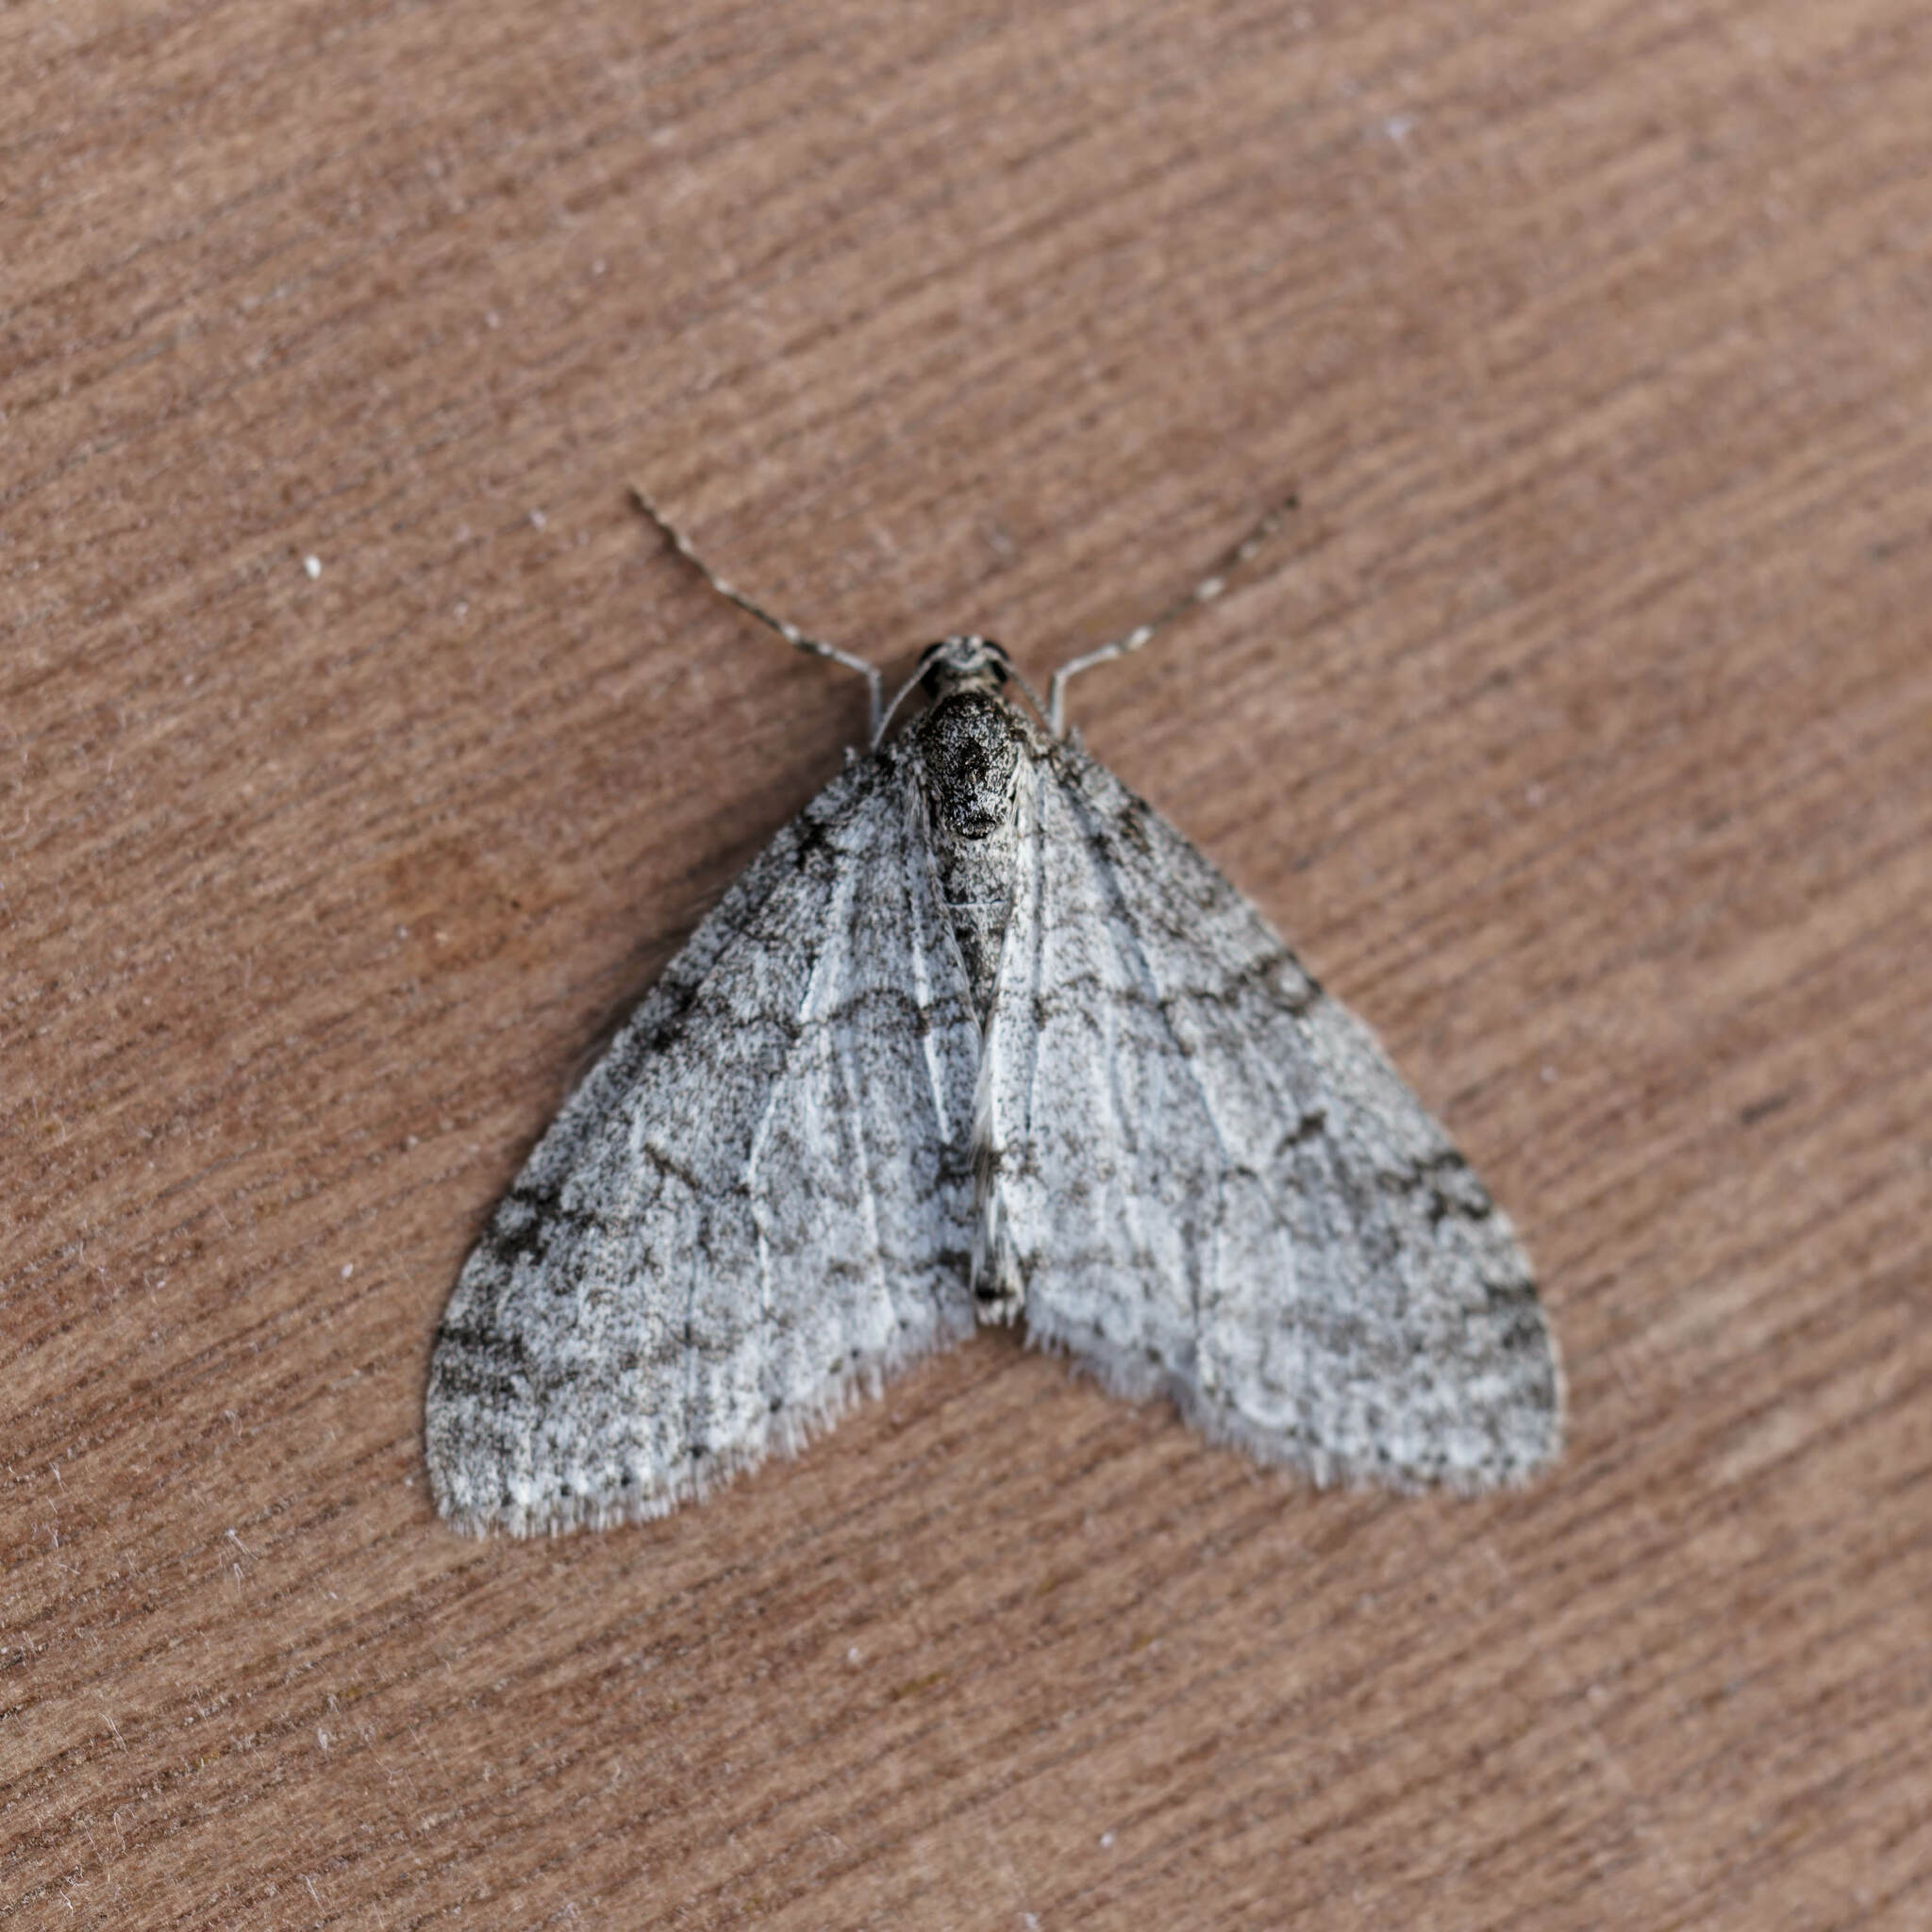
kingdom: Animalia
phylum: Arthropoda
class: Insecta
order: Lepidoptera
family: Geometridae
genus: Trichopteryx
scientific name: Trichopteryx carpinata
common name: Early tooth-striped
